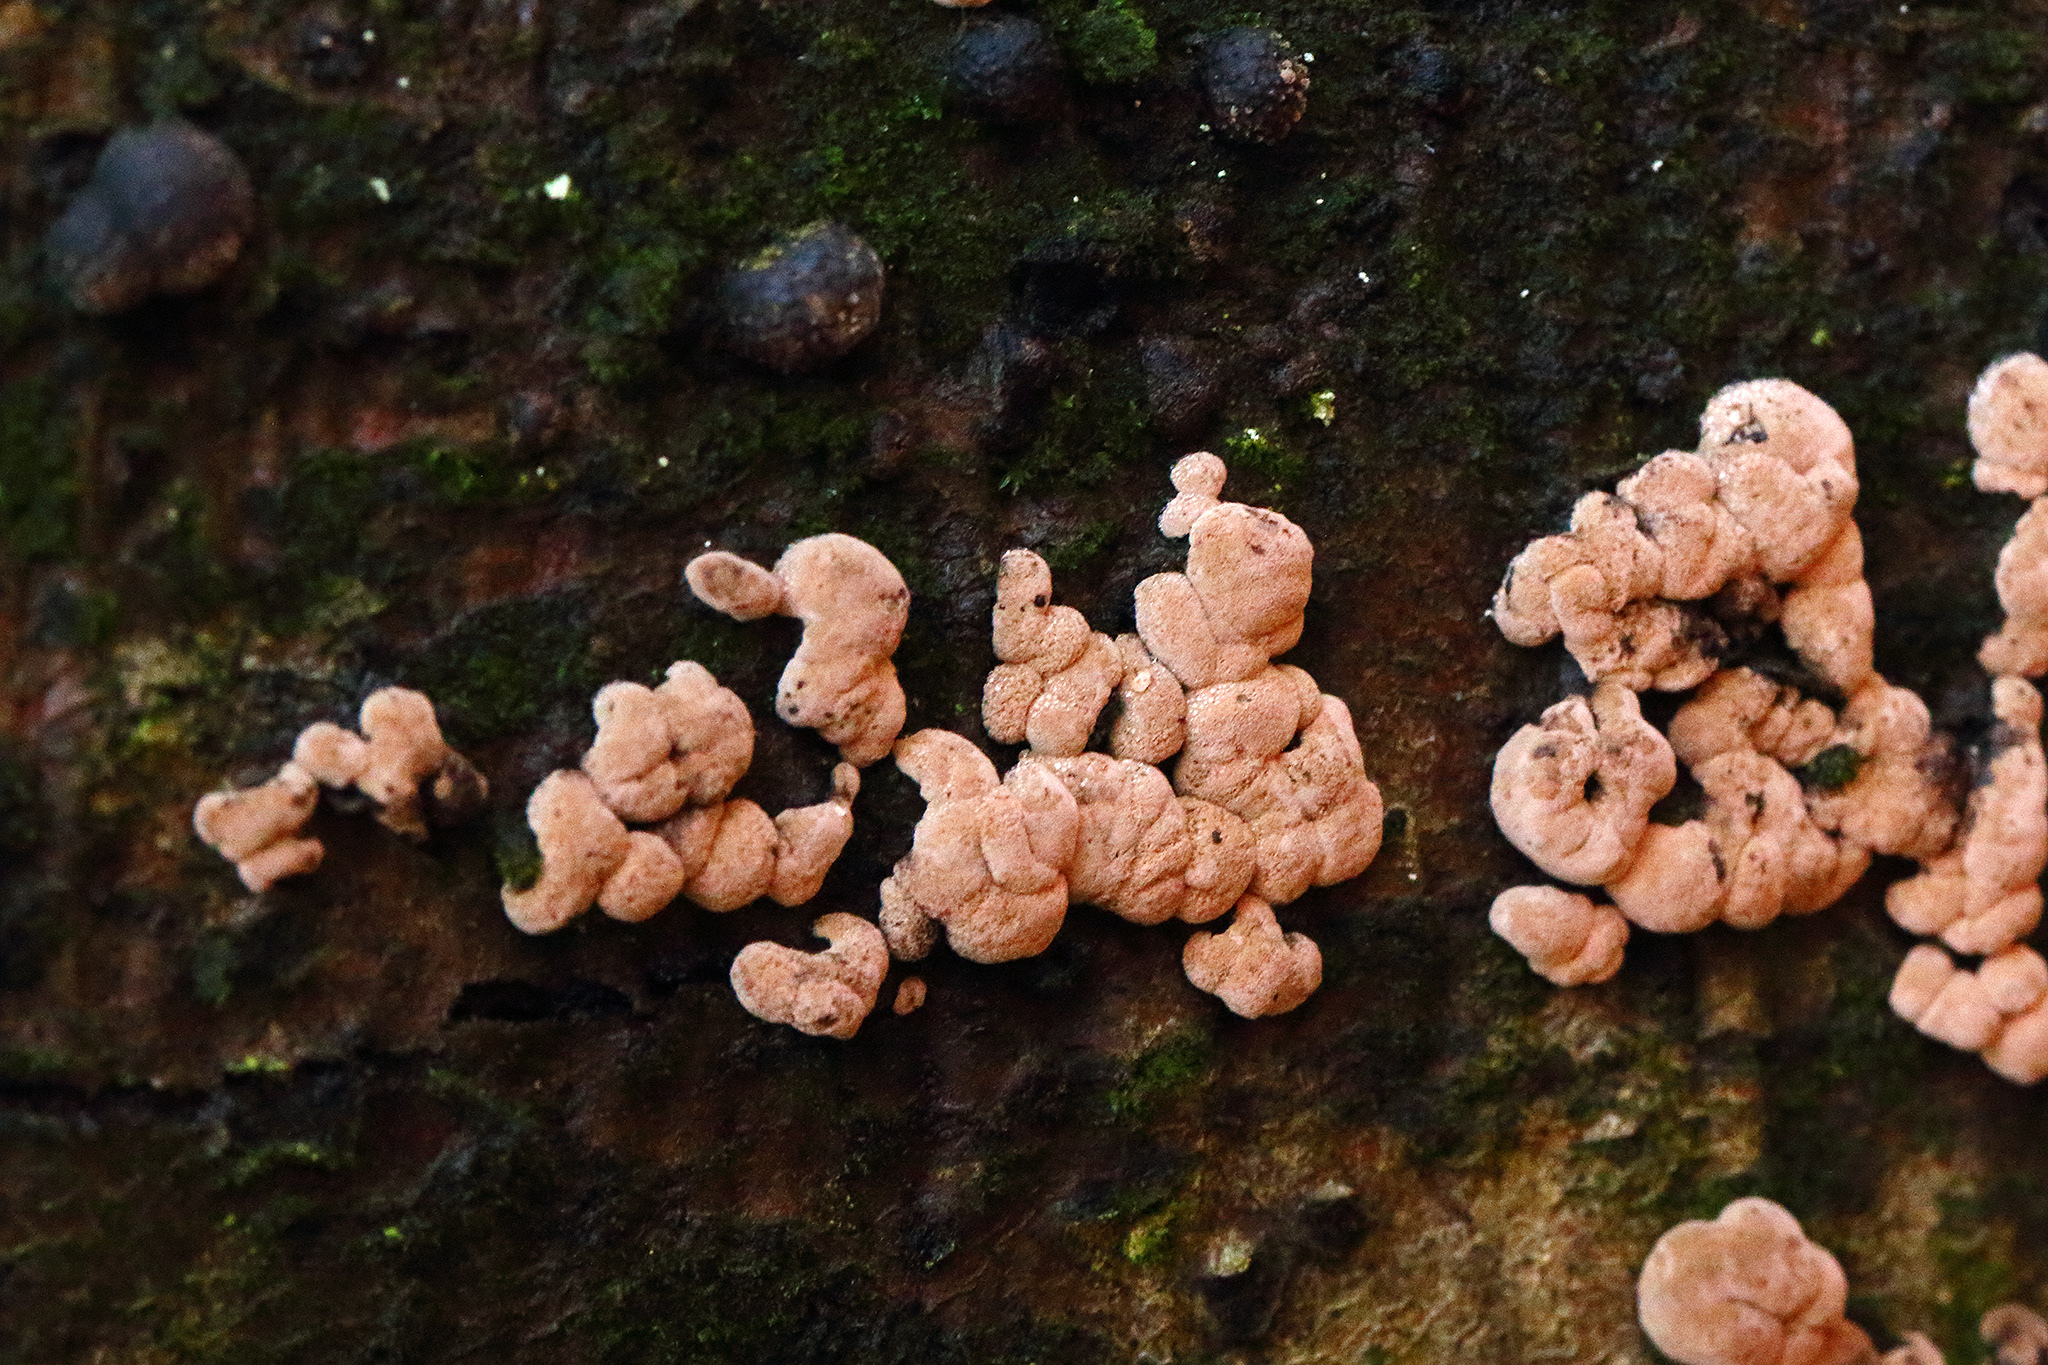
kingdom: Fungi
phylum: Ascomycota
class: Sordariomycetes
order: Xylariales
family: Hypoxylaceae
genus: Hypoxylon
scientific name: Hypoxylon fragiforme
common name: Beech woodwart
